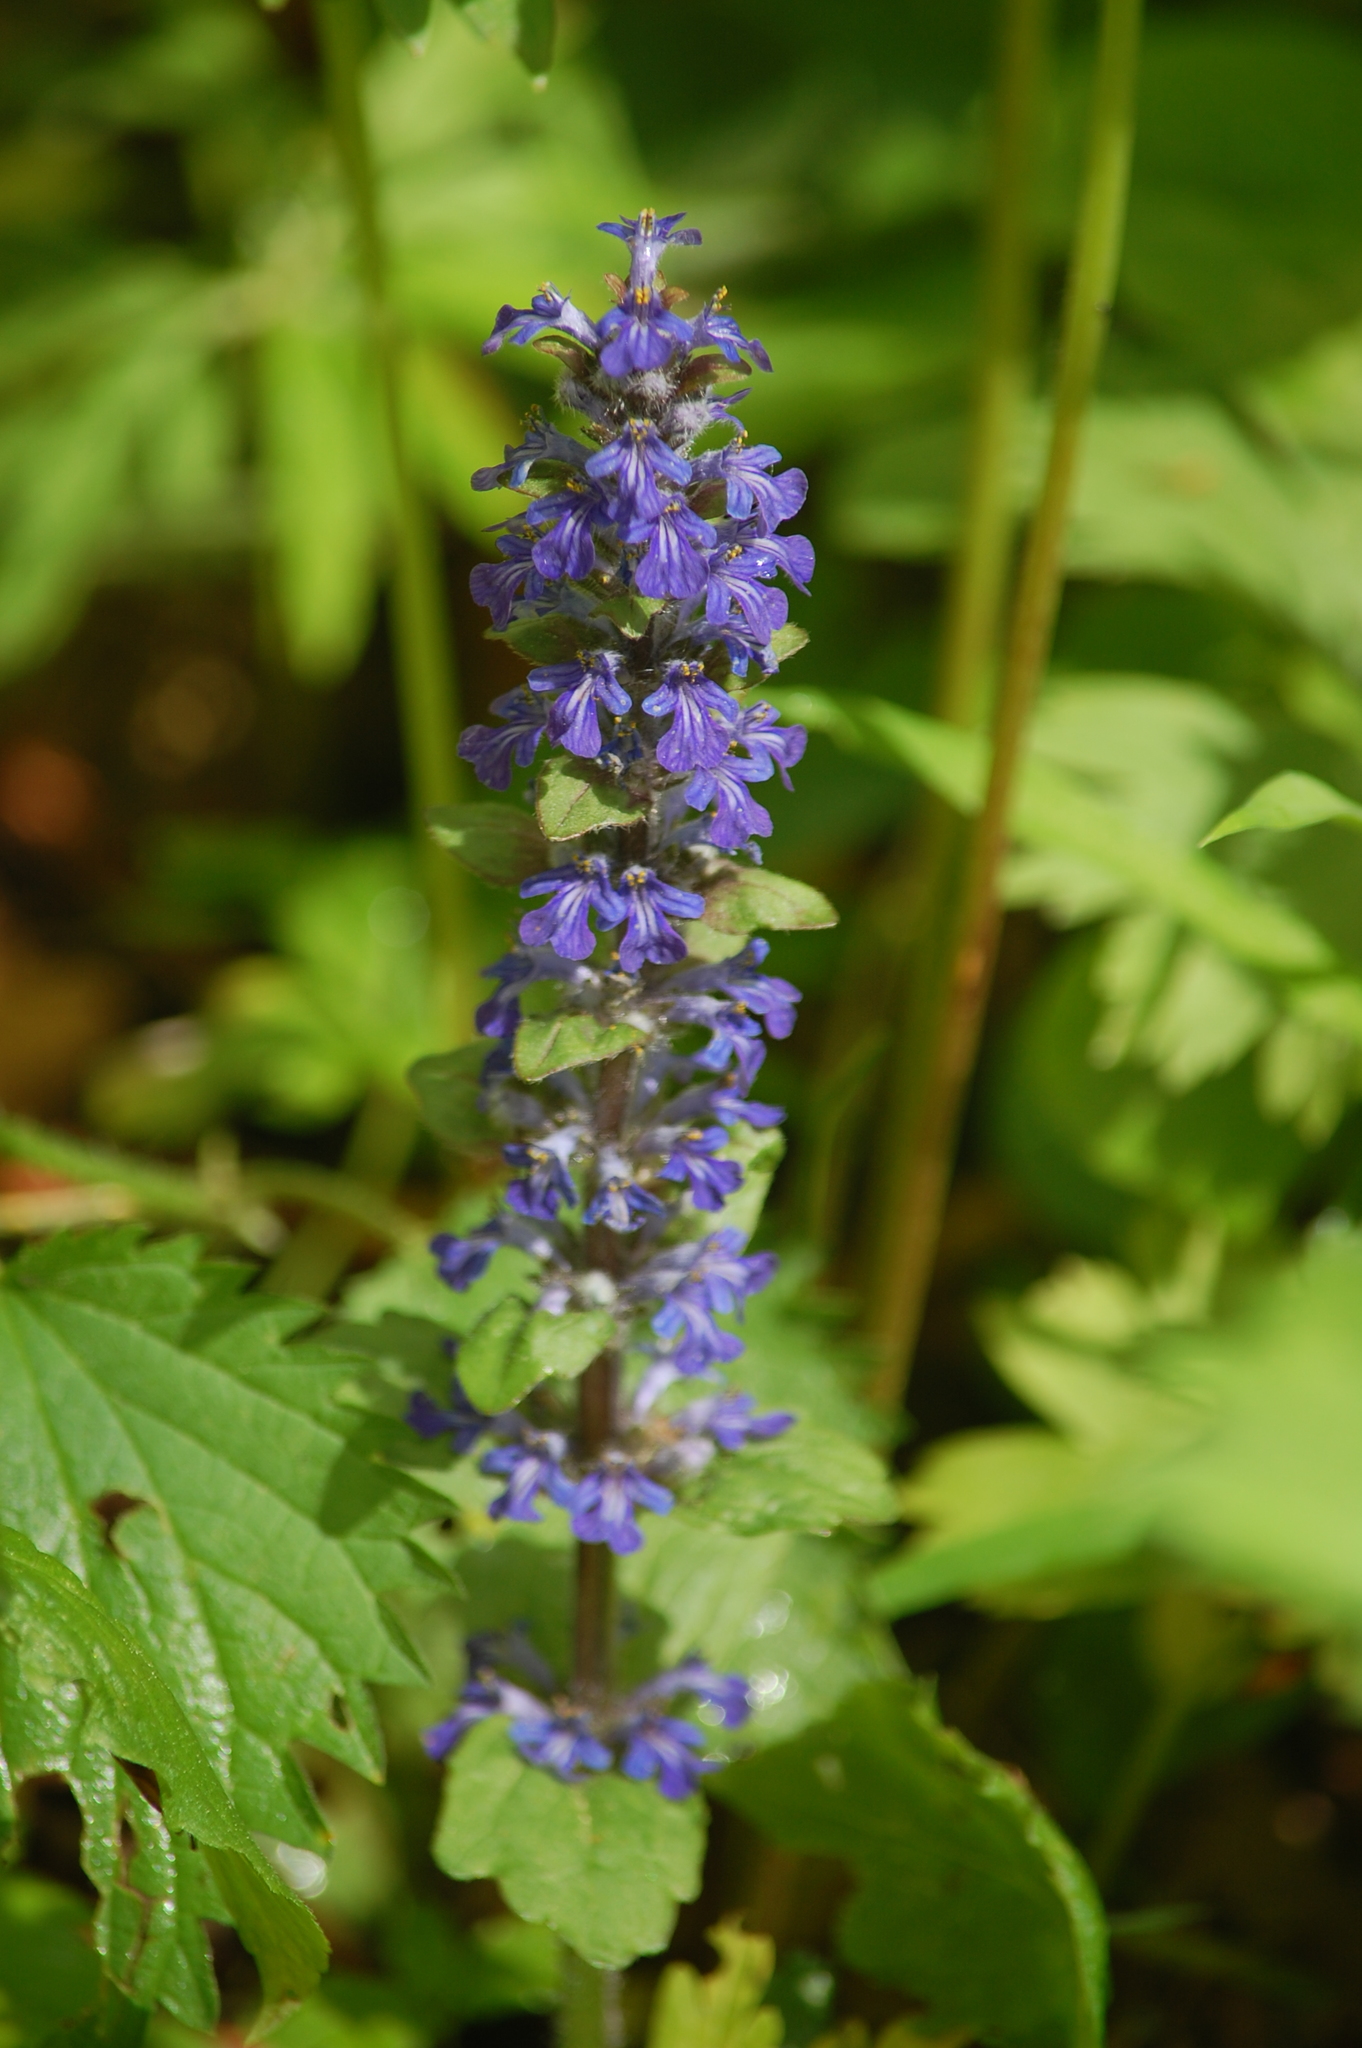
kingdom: Plantae
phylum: Tracheophyta
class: Magnoliopsida
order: Lamiales
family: Lamiaceae
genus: Ajuga
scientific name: Ajuga reptans
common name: Bugle
